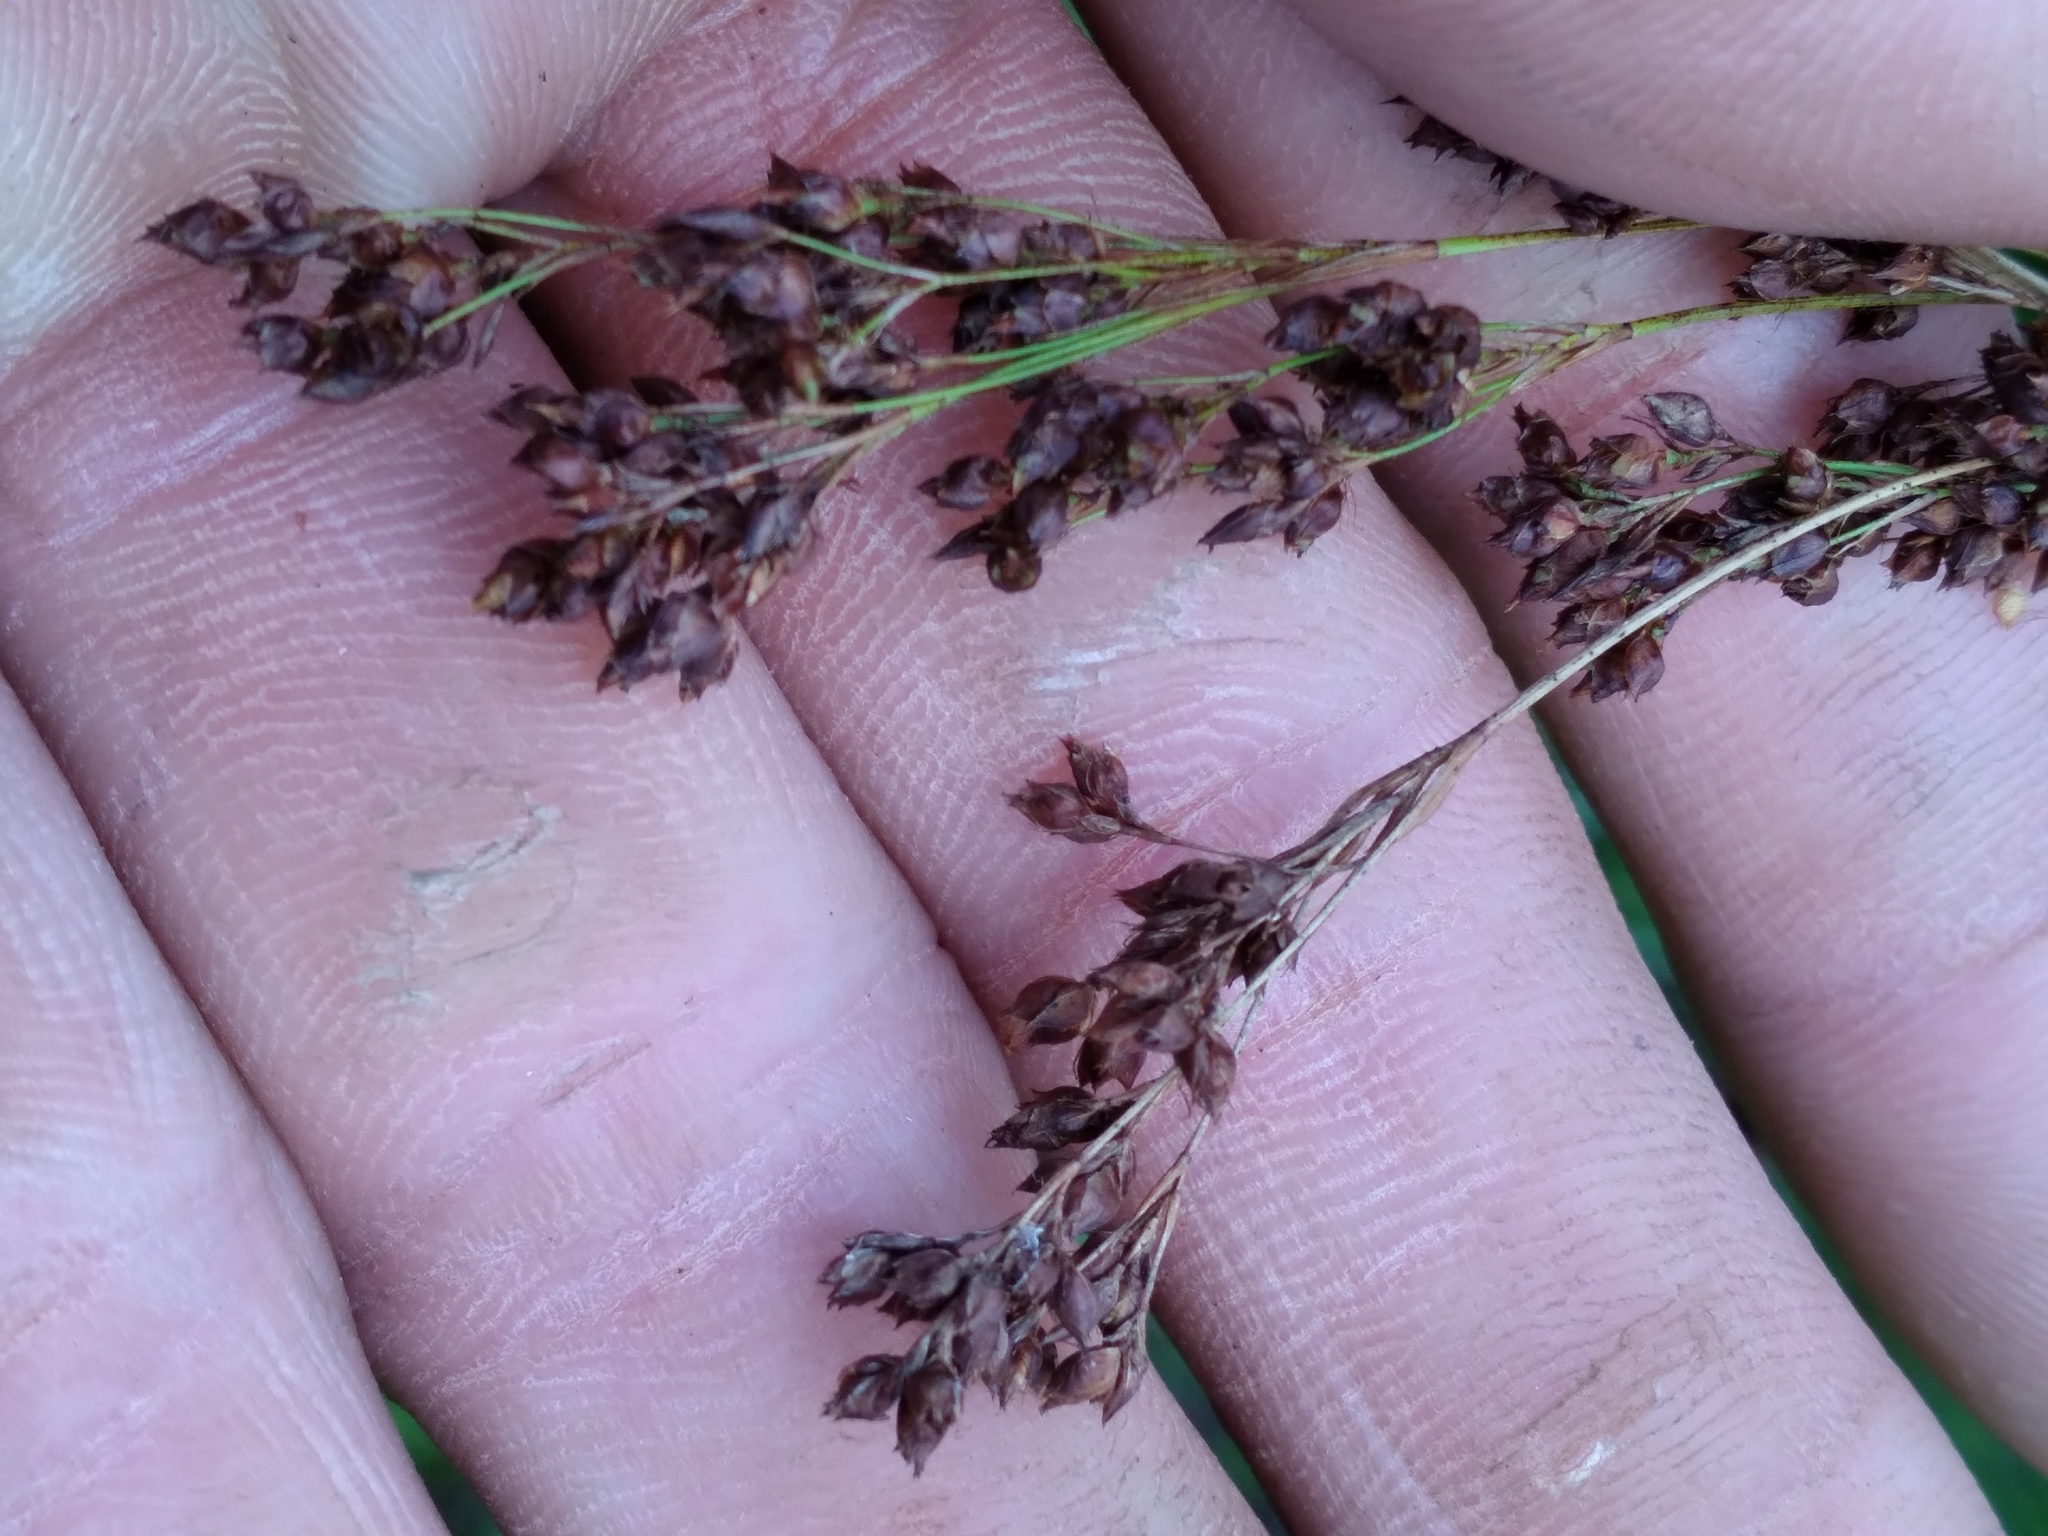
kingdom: Plantae
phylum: Tracheophyta
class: Liliopsida
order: Poales
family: Cyperaceae
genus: Rhynchospora
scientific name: Rhynchospora elliottii
